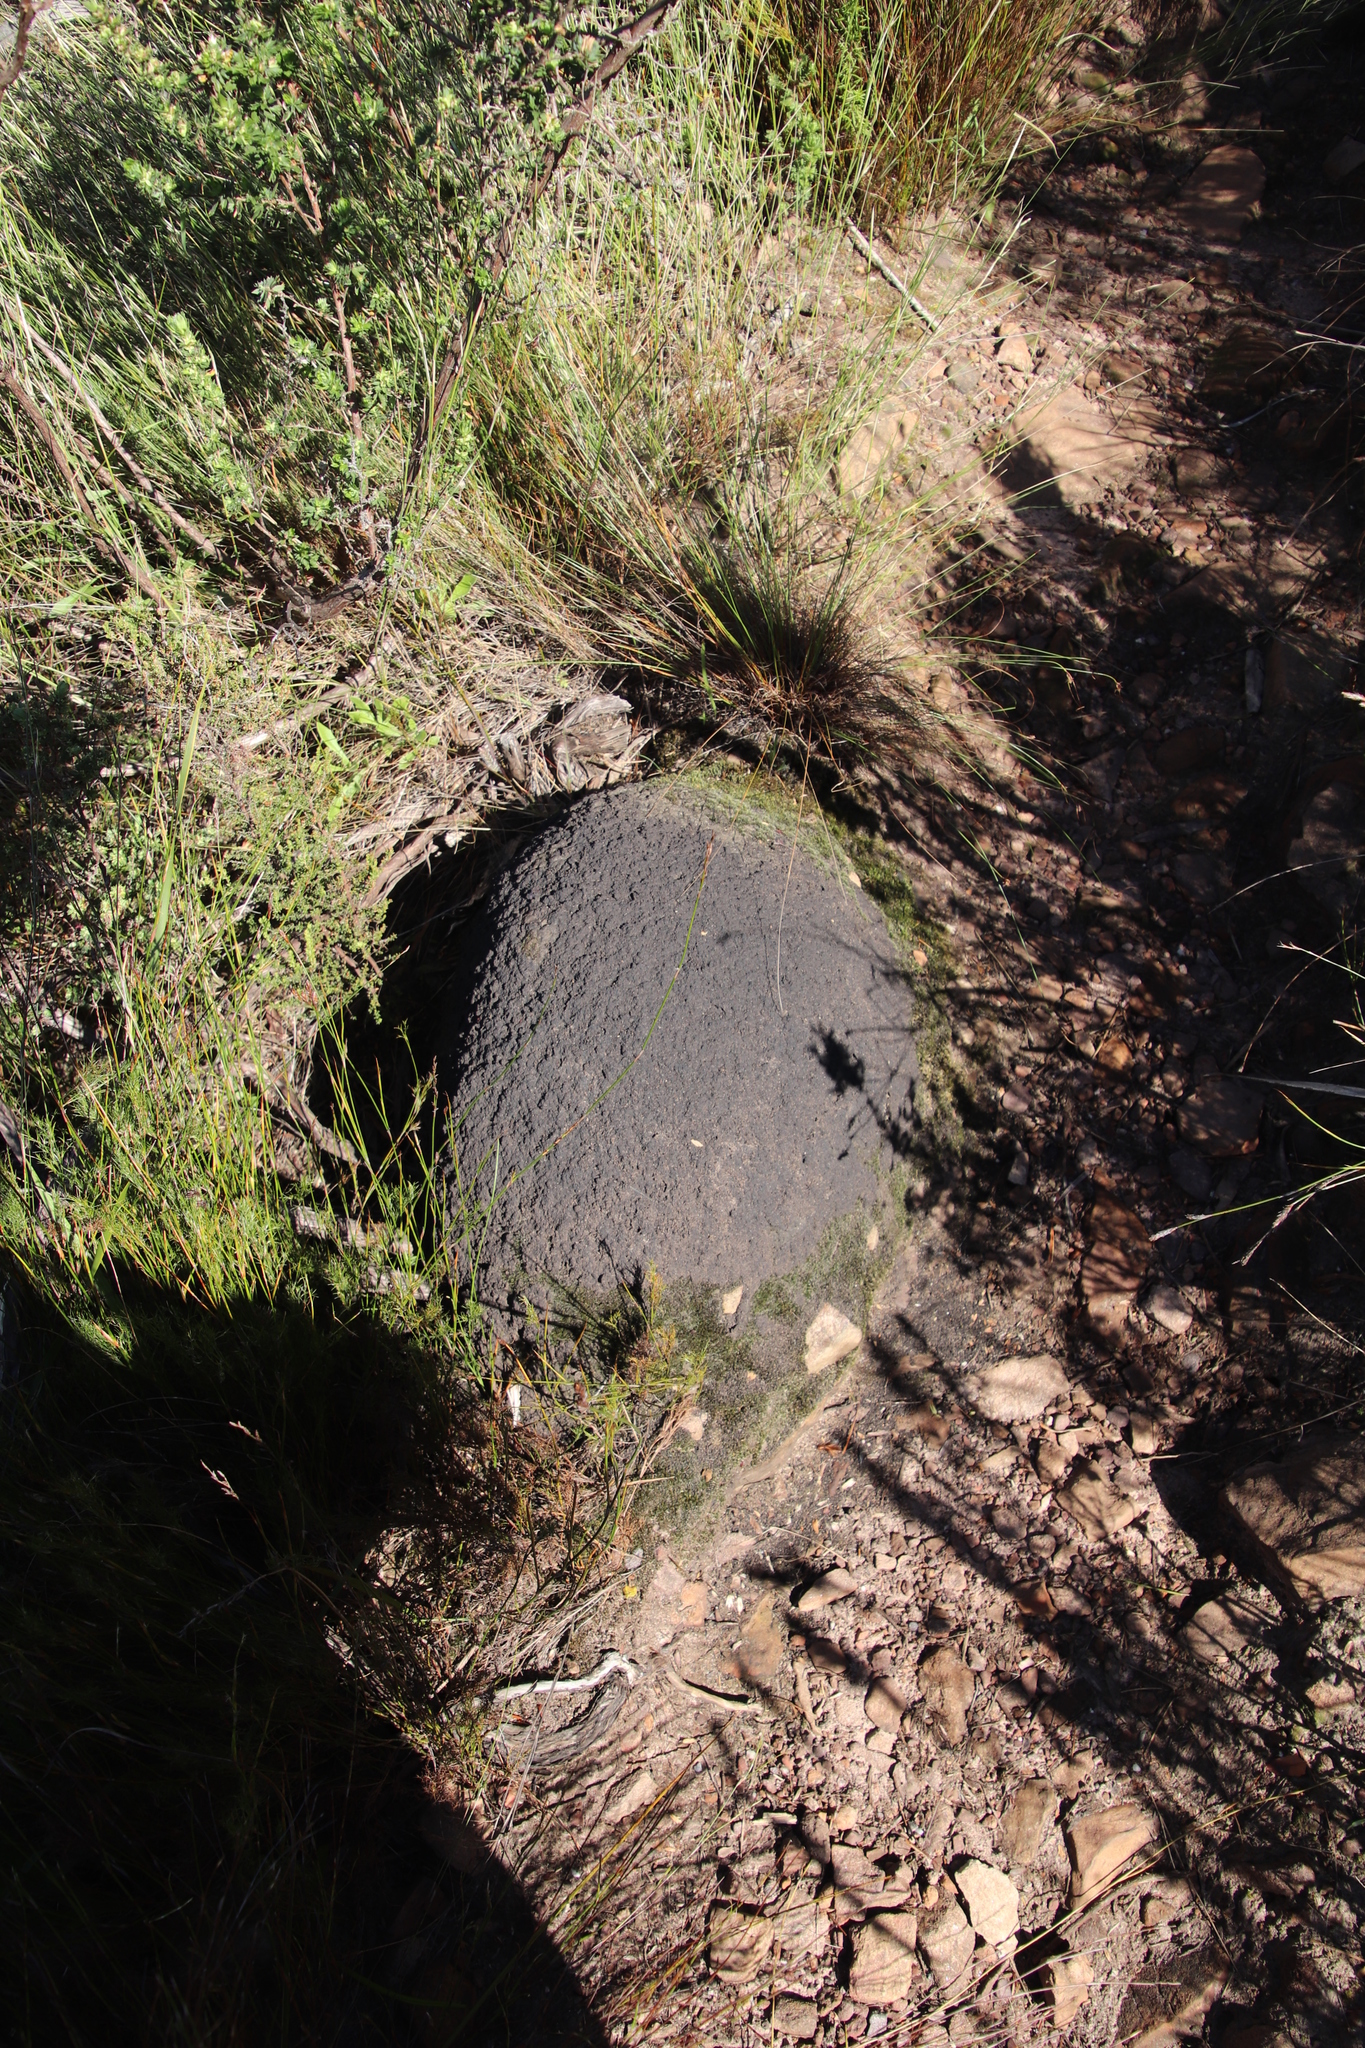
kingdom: Animalia
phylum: Arthropoda
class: Insecta
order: Blattodea
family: Termitidae
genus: Amitermes
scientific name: Amitermes hastatus
